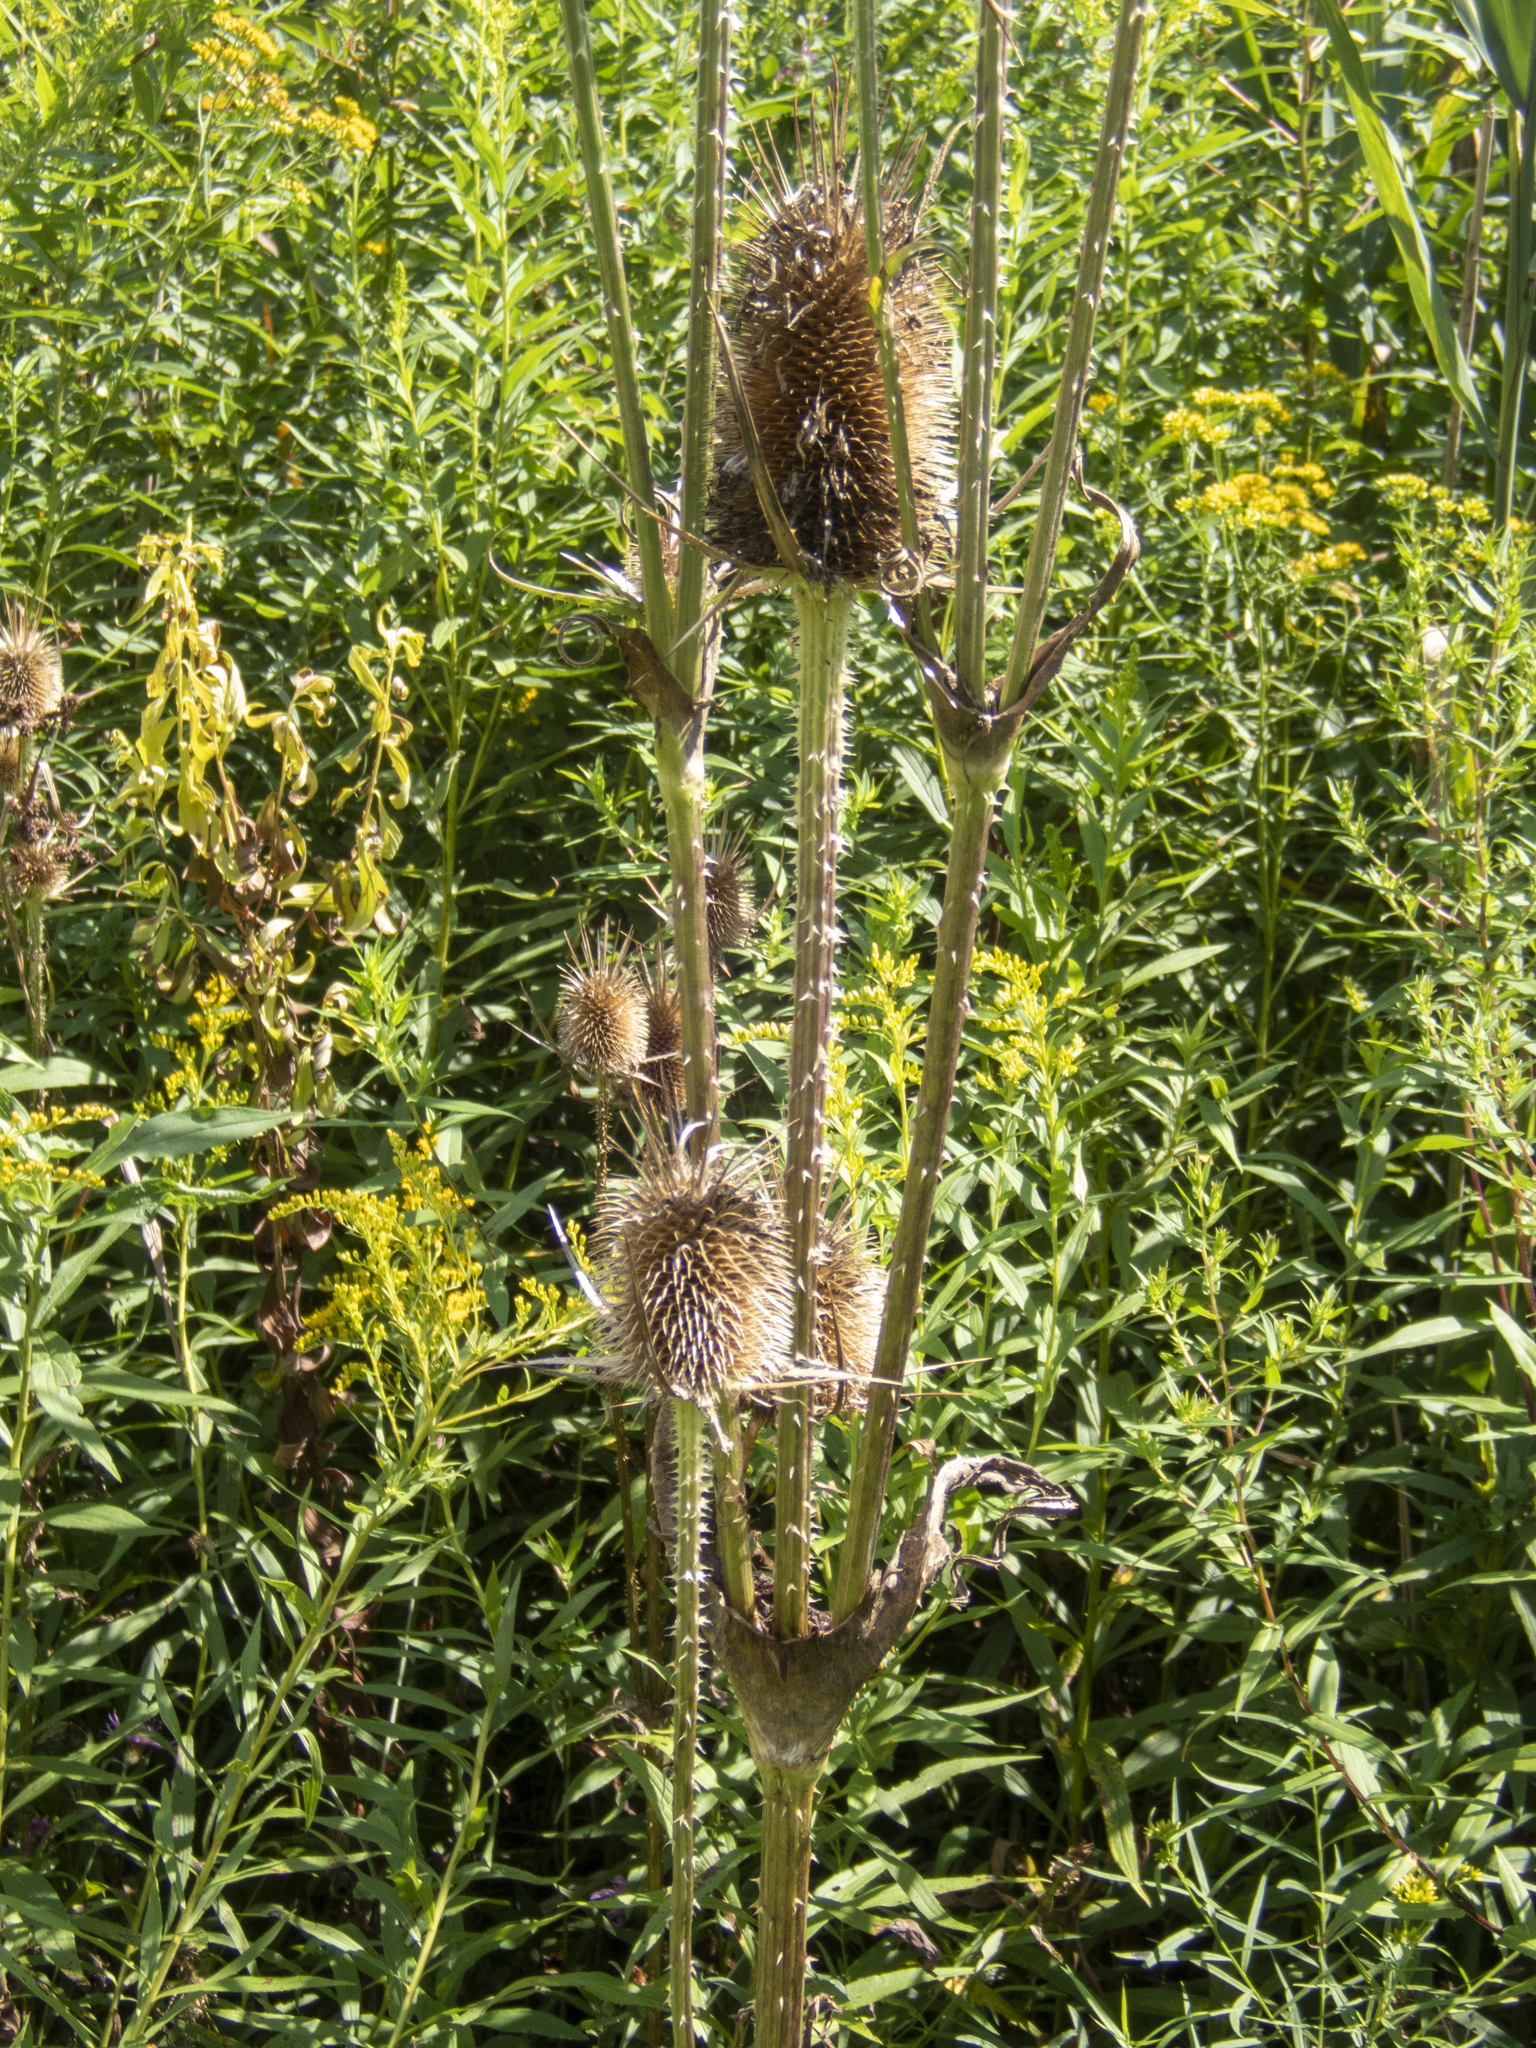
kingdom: Plantae
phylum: Tracheophyta
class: Magnoliopsida
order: Dipsacales
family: Caprifoliaceae
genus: Dipsacus
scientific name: Dipsacus laciniatus
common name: Cut-leaved teasel
